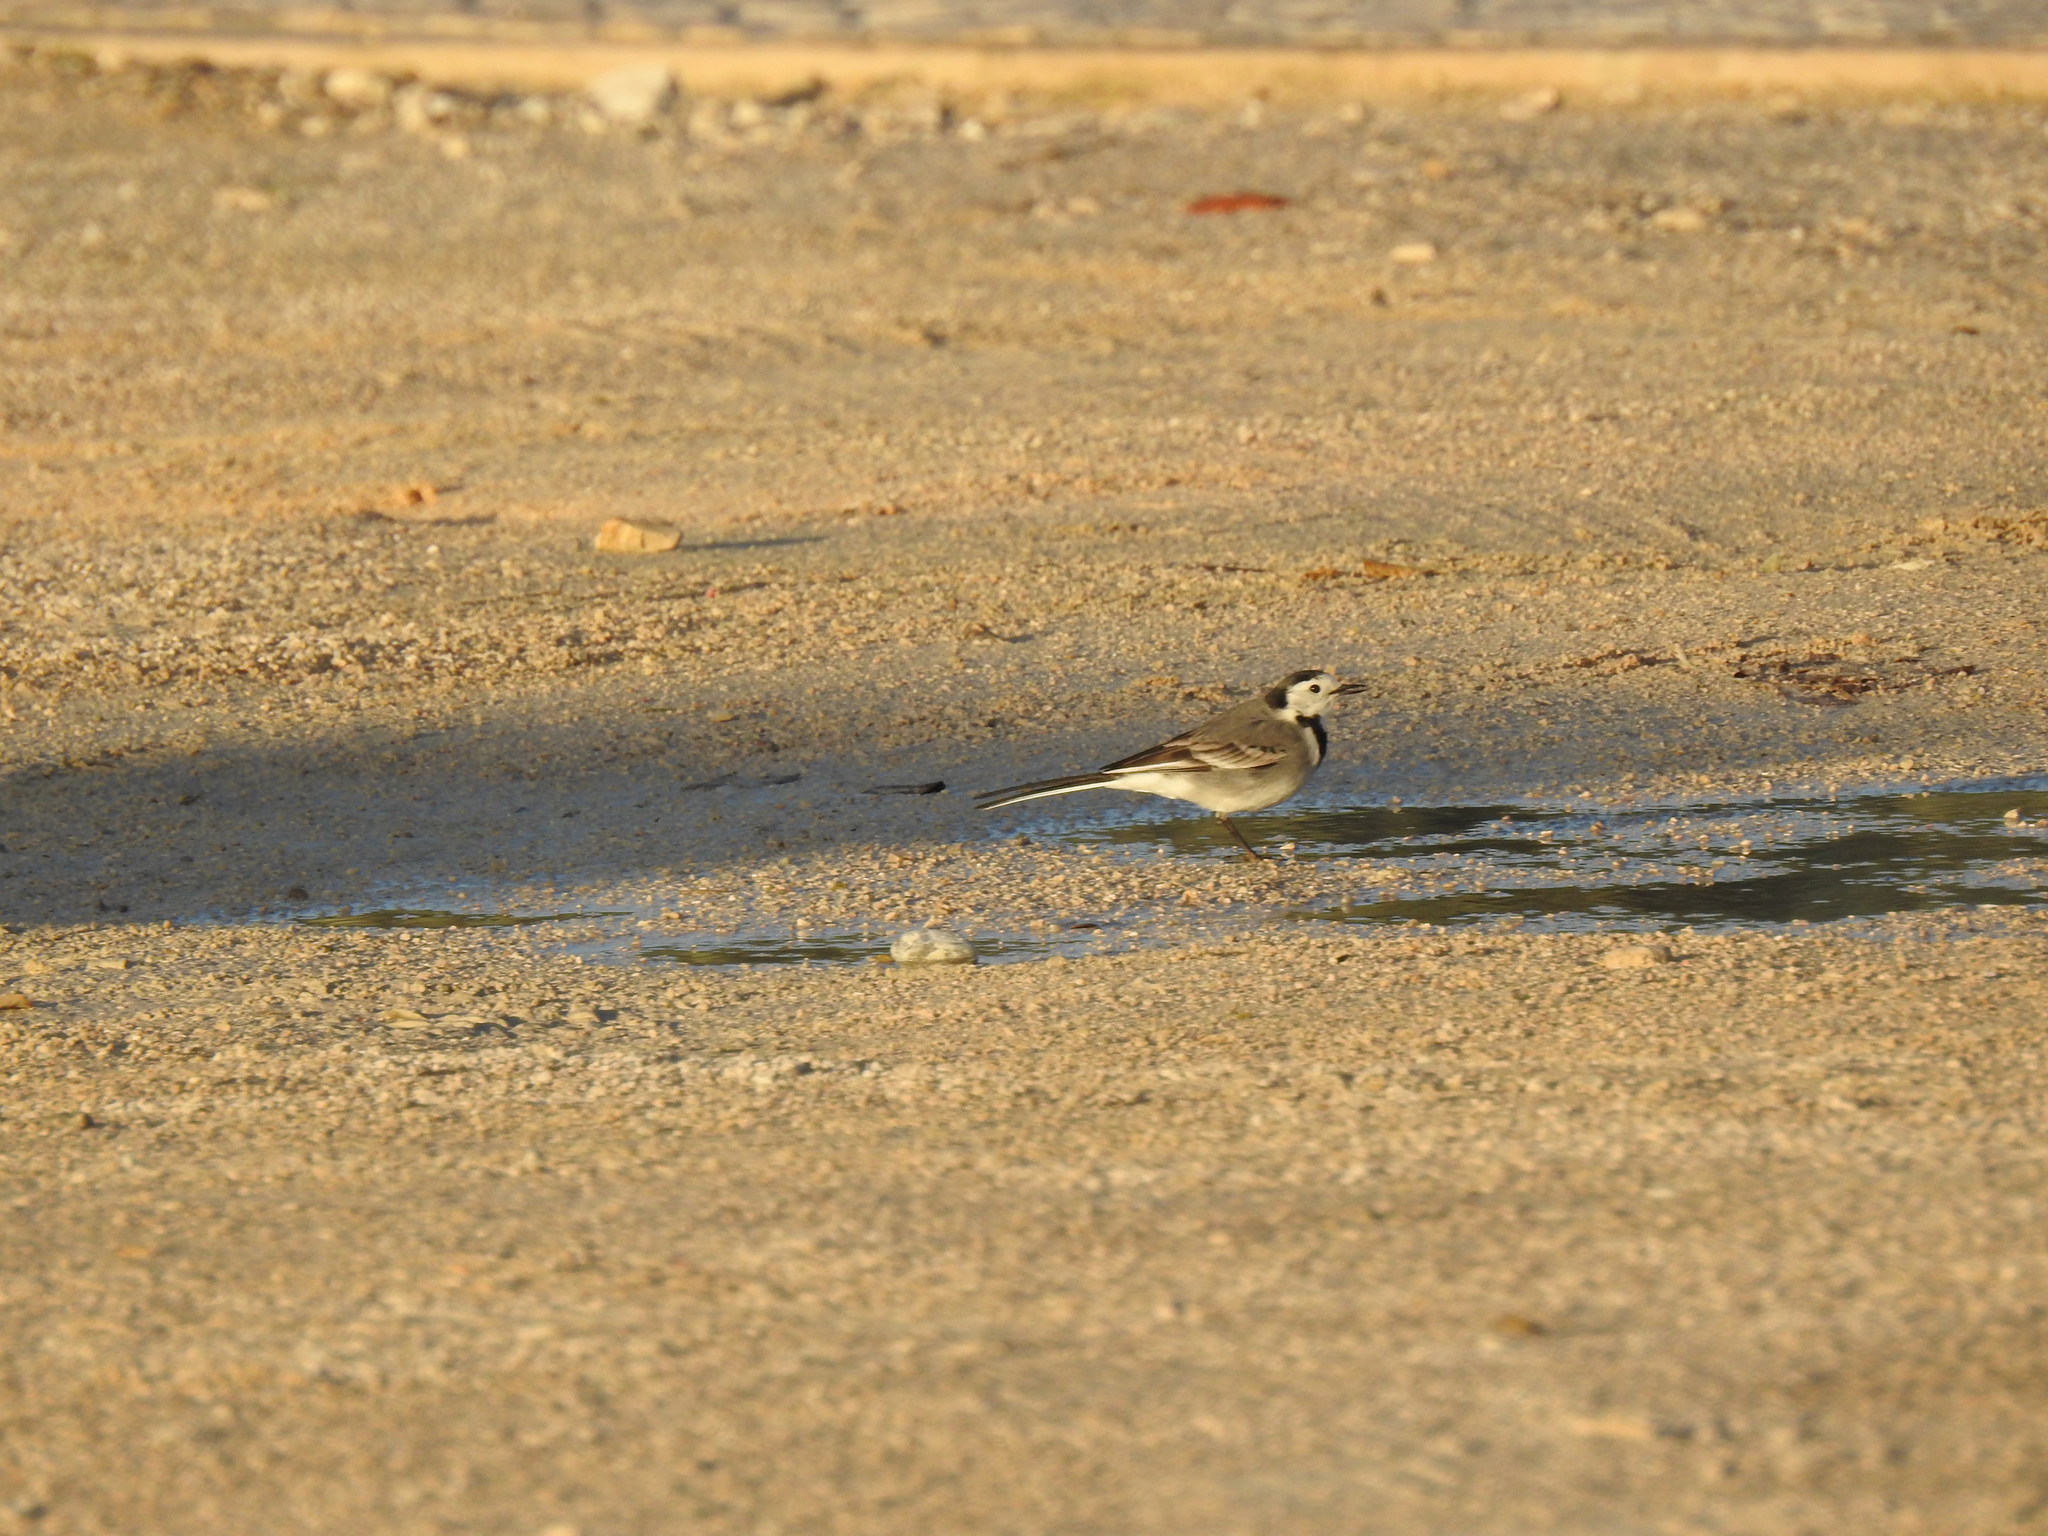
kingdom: Animalia
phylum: Chordata
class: Aves
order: Passeriformes
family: Motacillidae
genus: Motacilla
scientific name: Motacilla alba
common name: White wagtail
